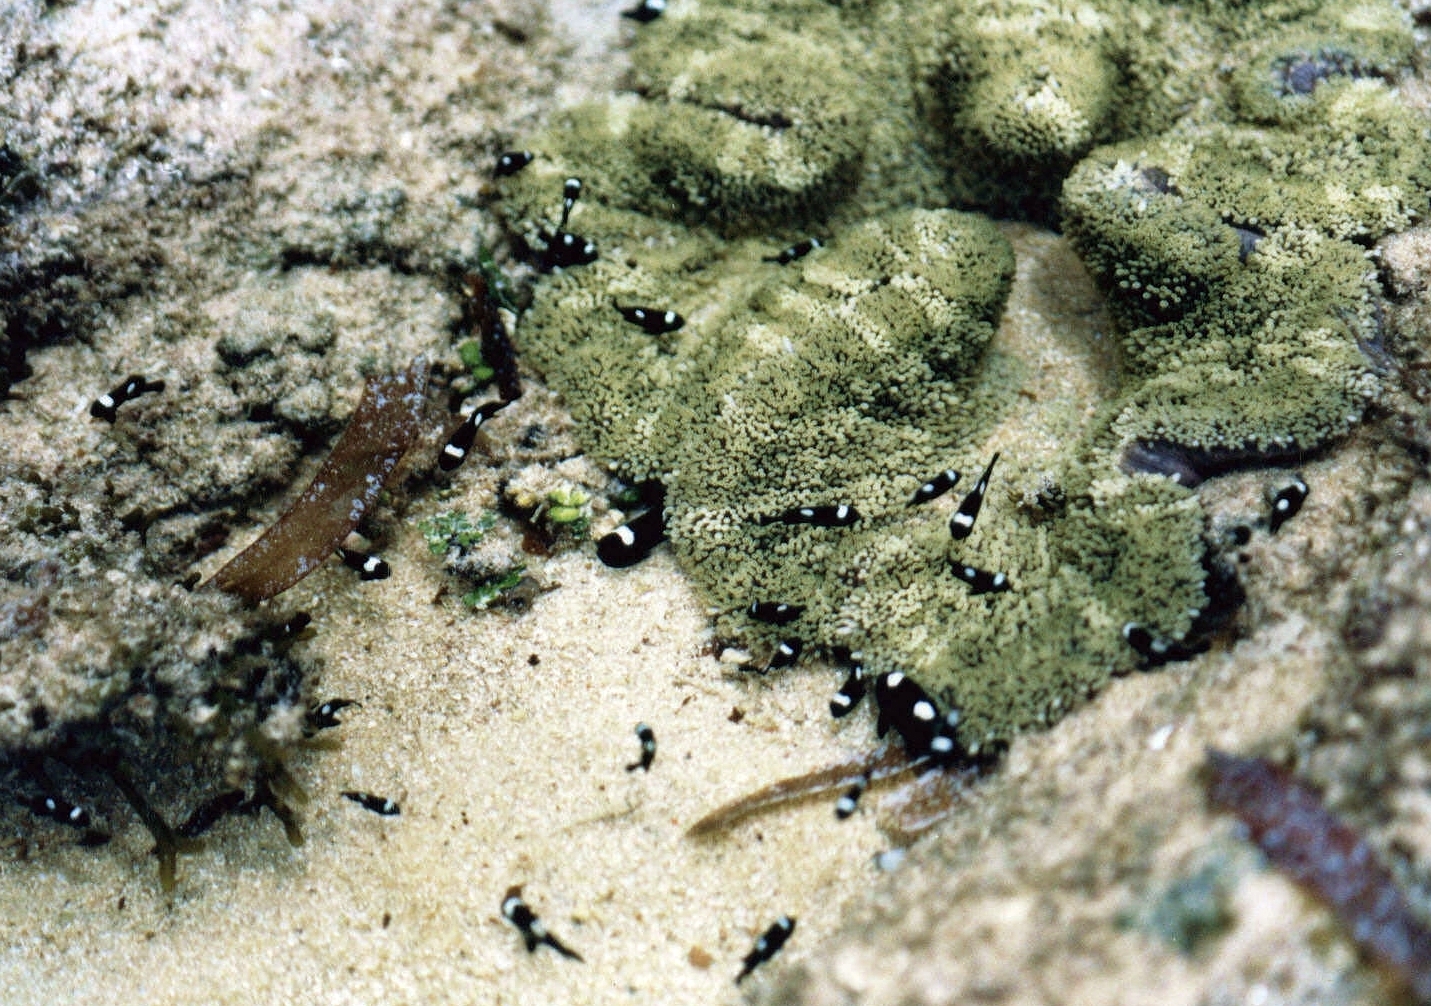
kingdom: Animalia
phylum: Chordata
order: Perciformes
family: Pomacentridae
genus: Dascyllus
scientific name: Dascyllus trimaculatus
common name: Threespot dascyllus
